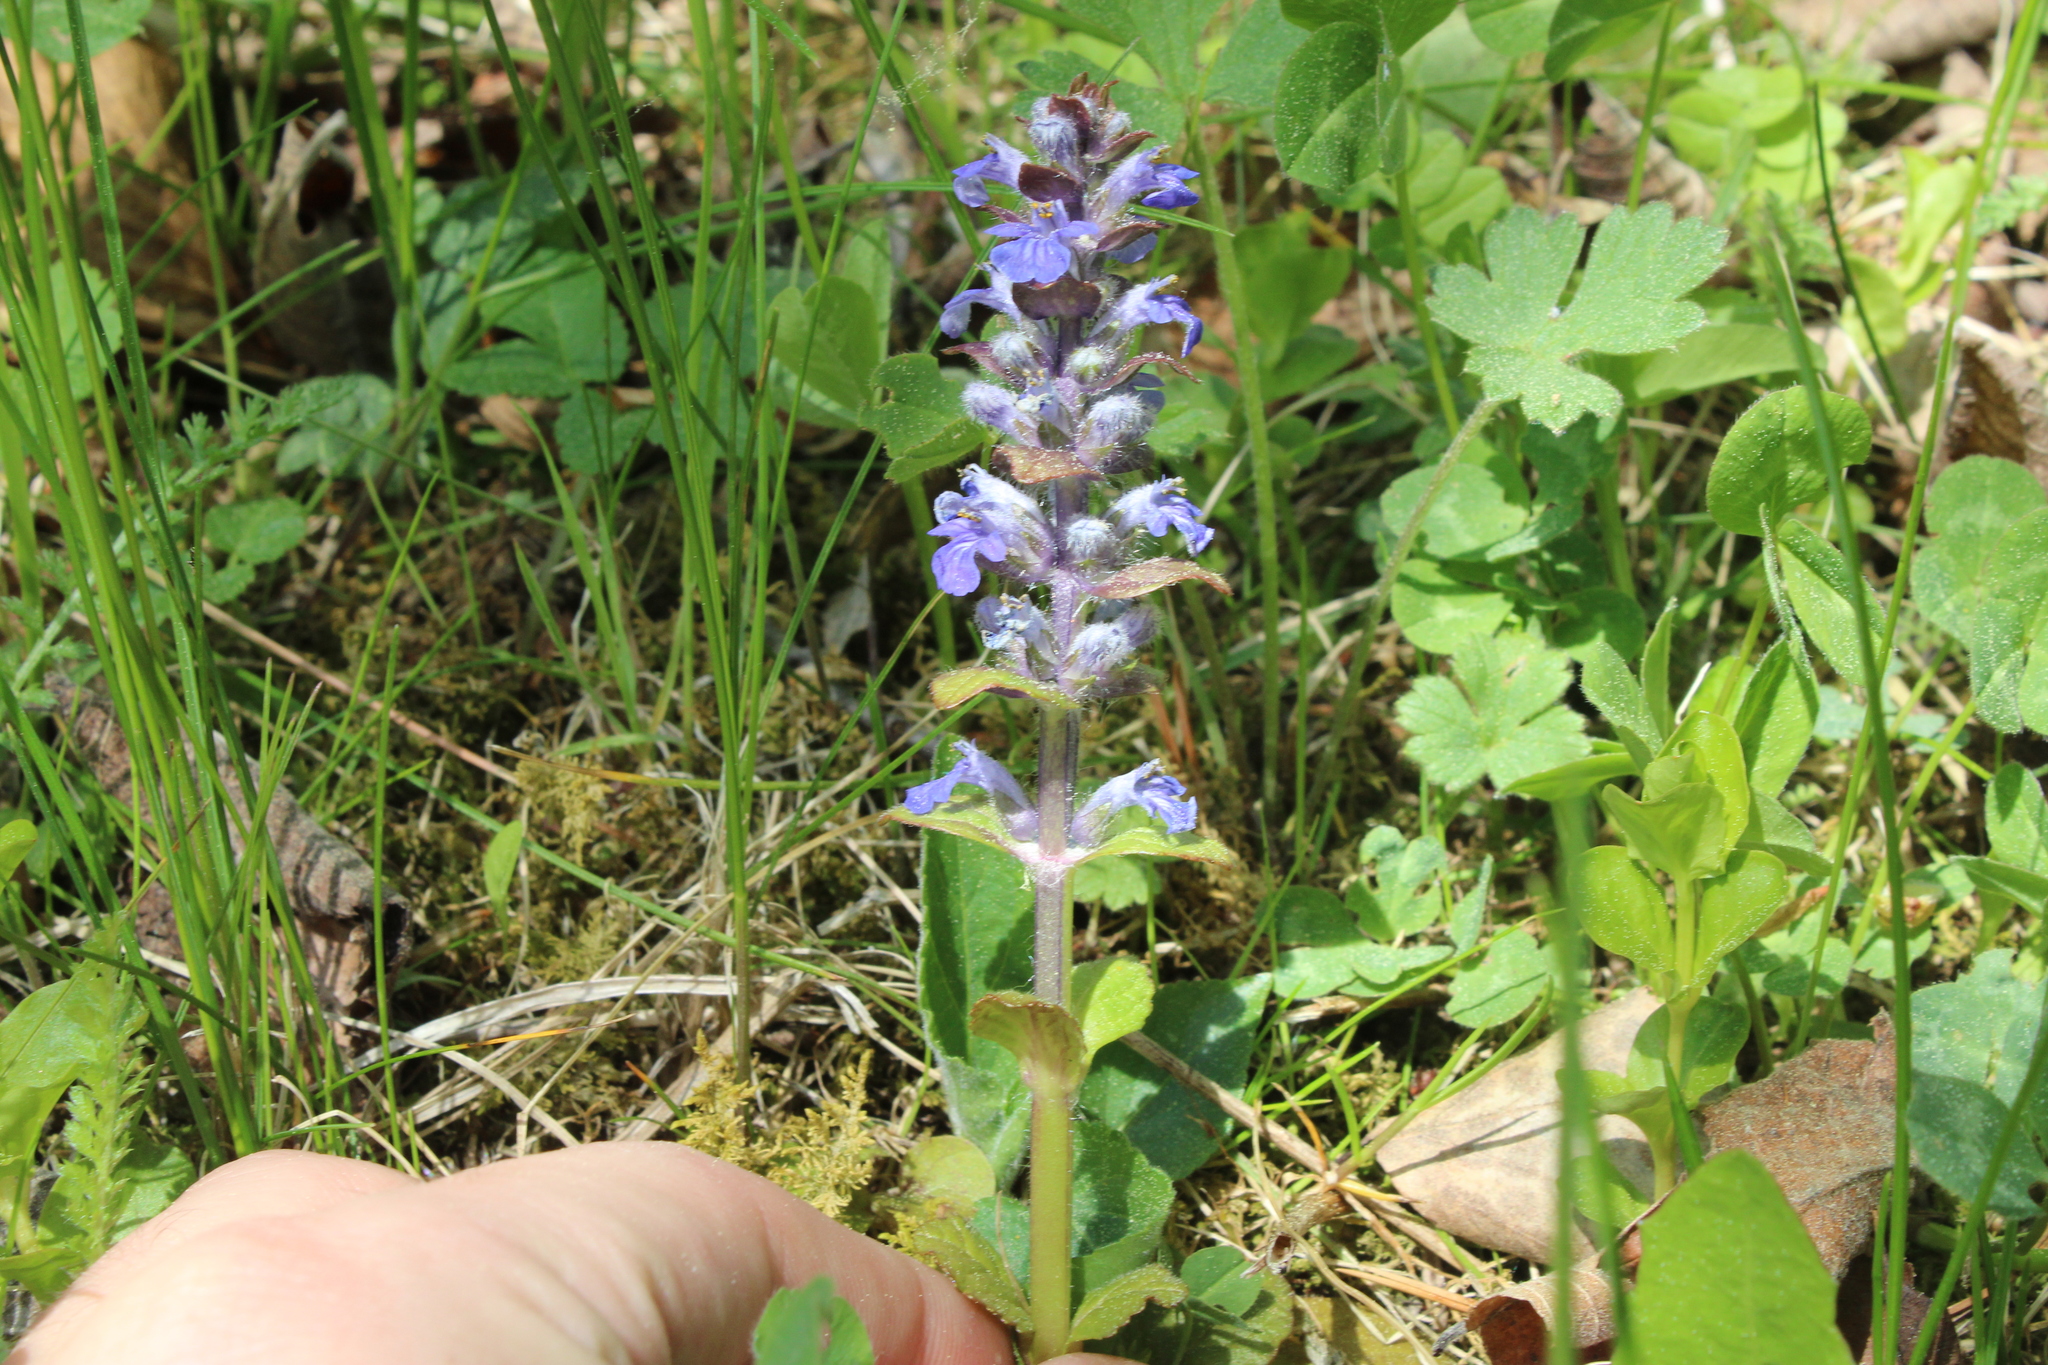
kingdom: Plantae
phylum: Tracheophyta
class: Magnoliopsida
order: Lamiales
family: Lamiaceae
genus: Ajuga
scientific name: Ajuga reptans
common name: Bugle
